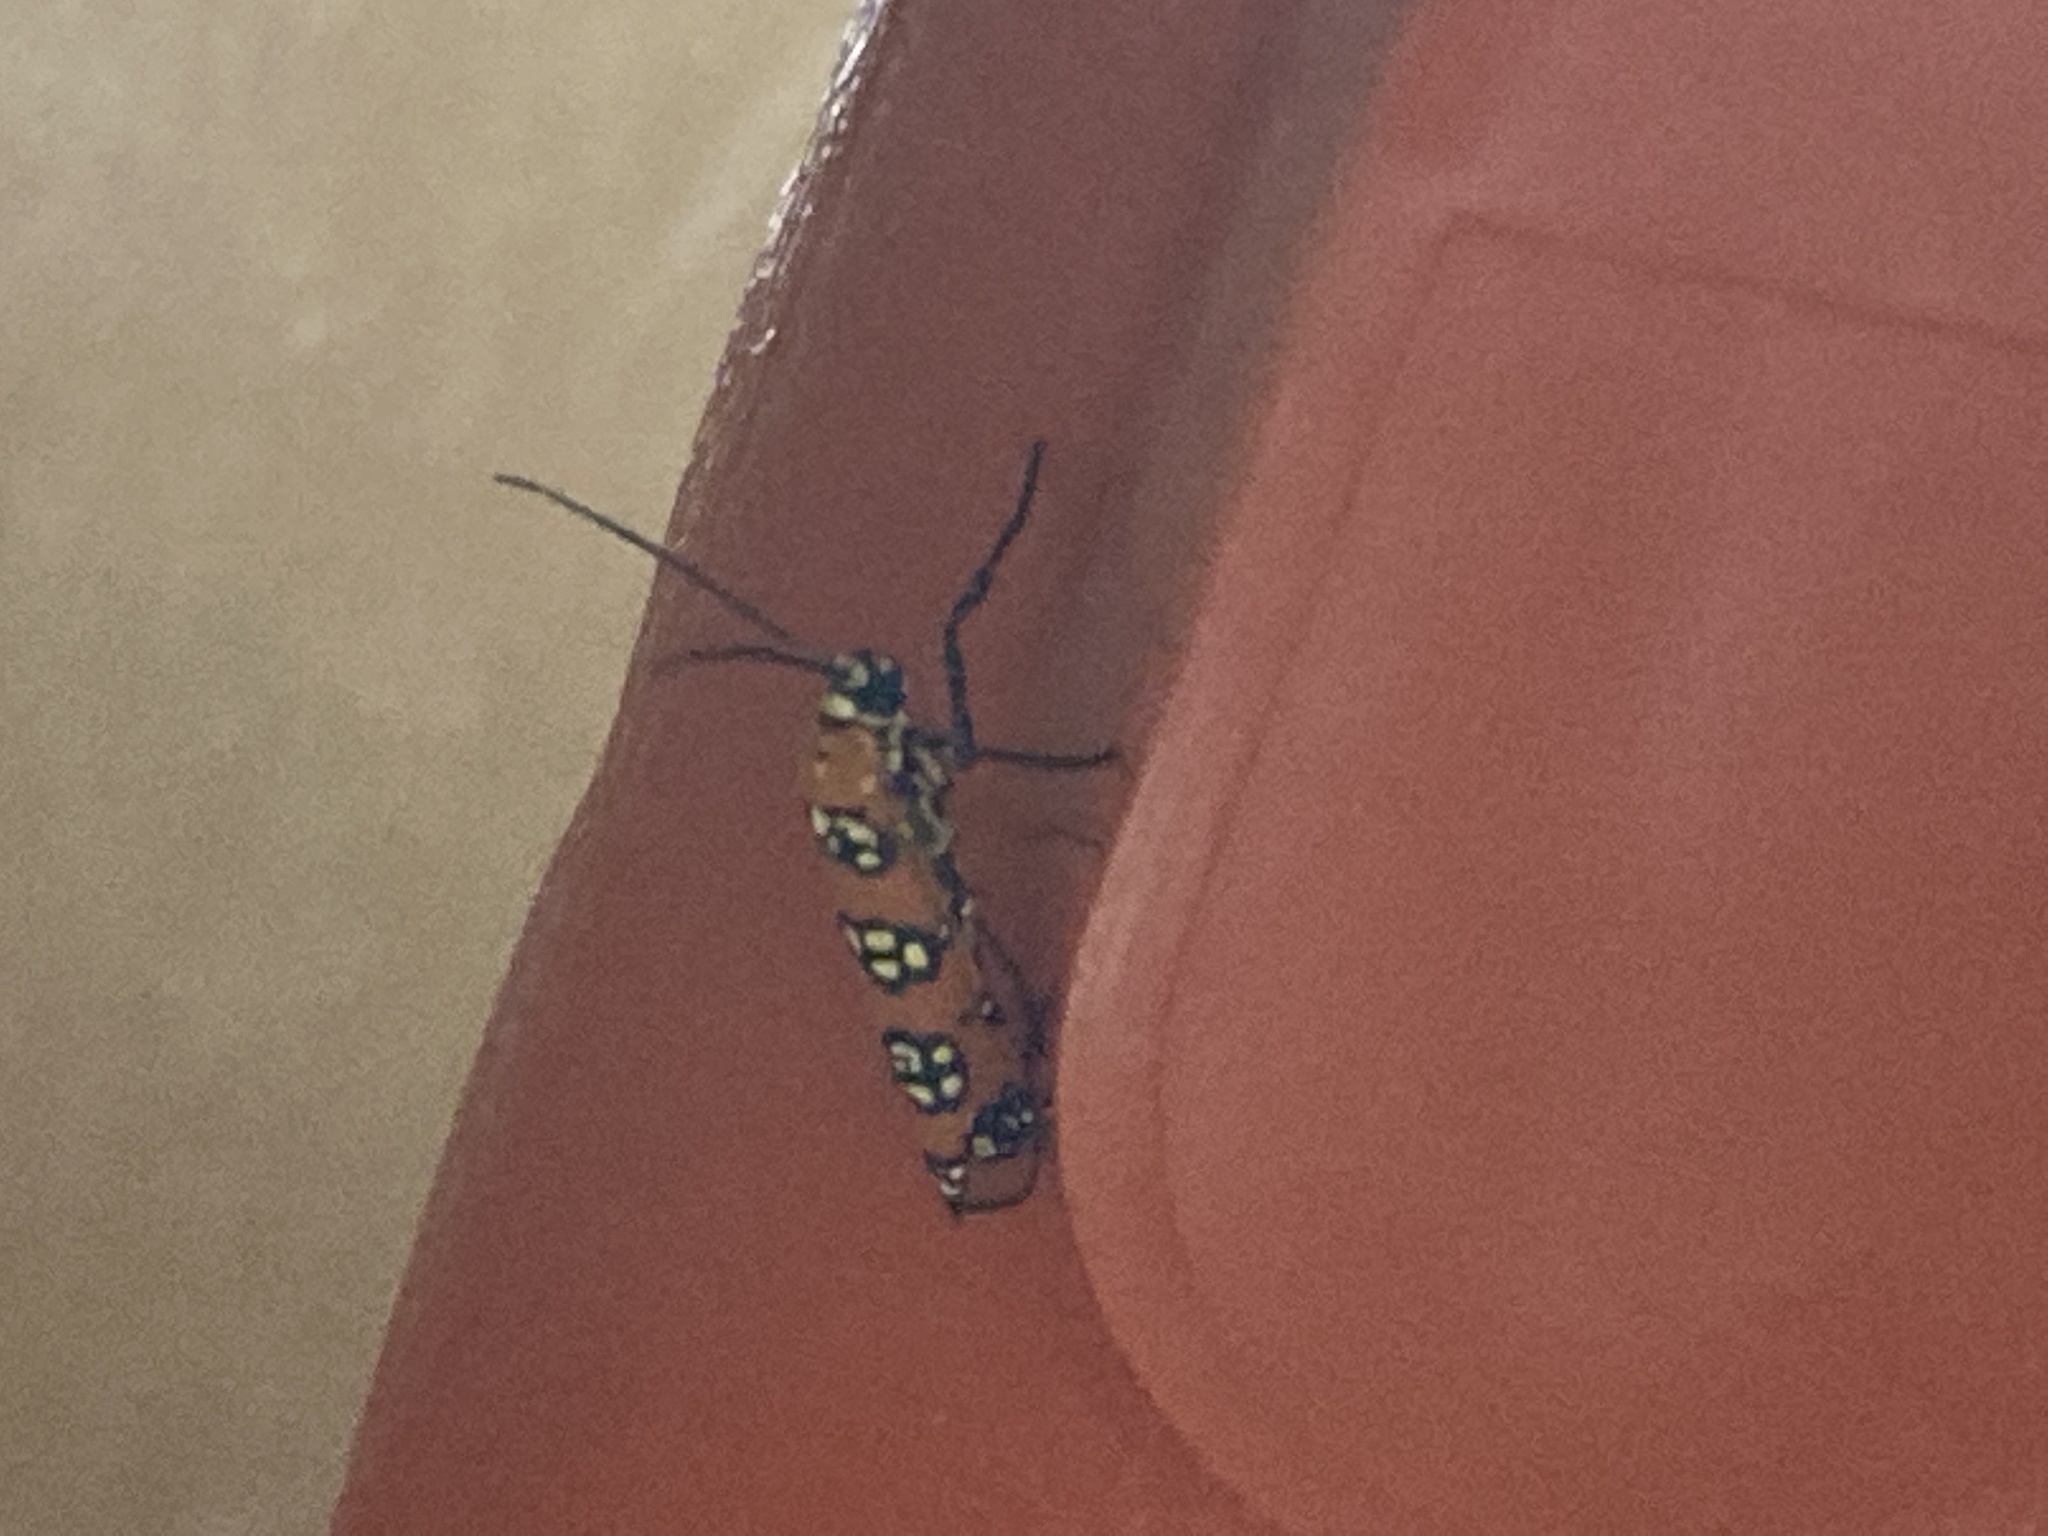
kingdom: Animalia
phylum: Arthropoda
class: Insecta
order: Lepidoptera
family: Attevidae
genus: Atteva
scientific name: Atteva punctella
